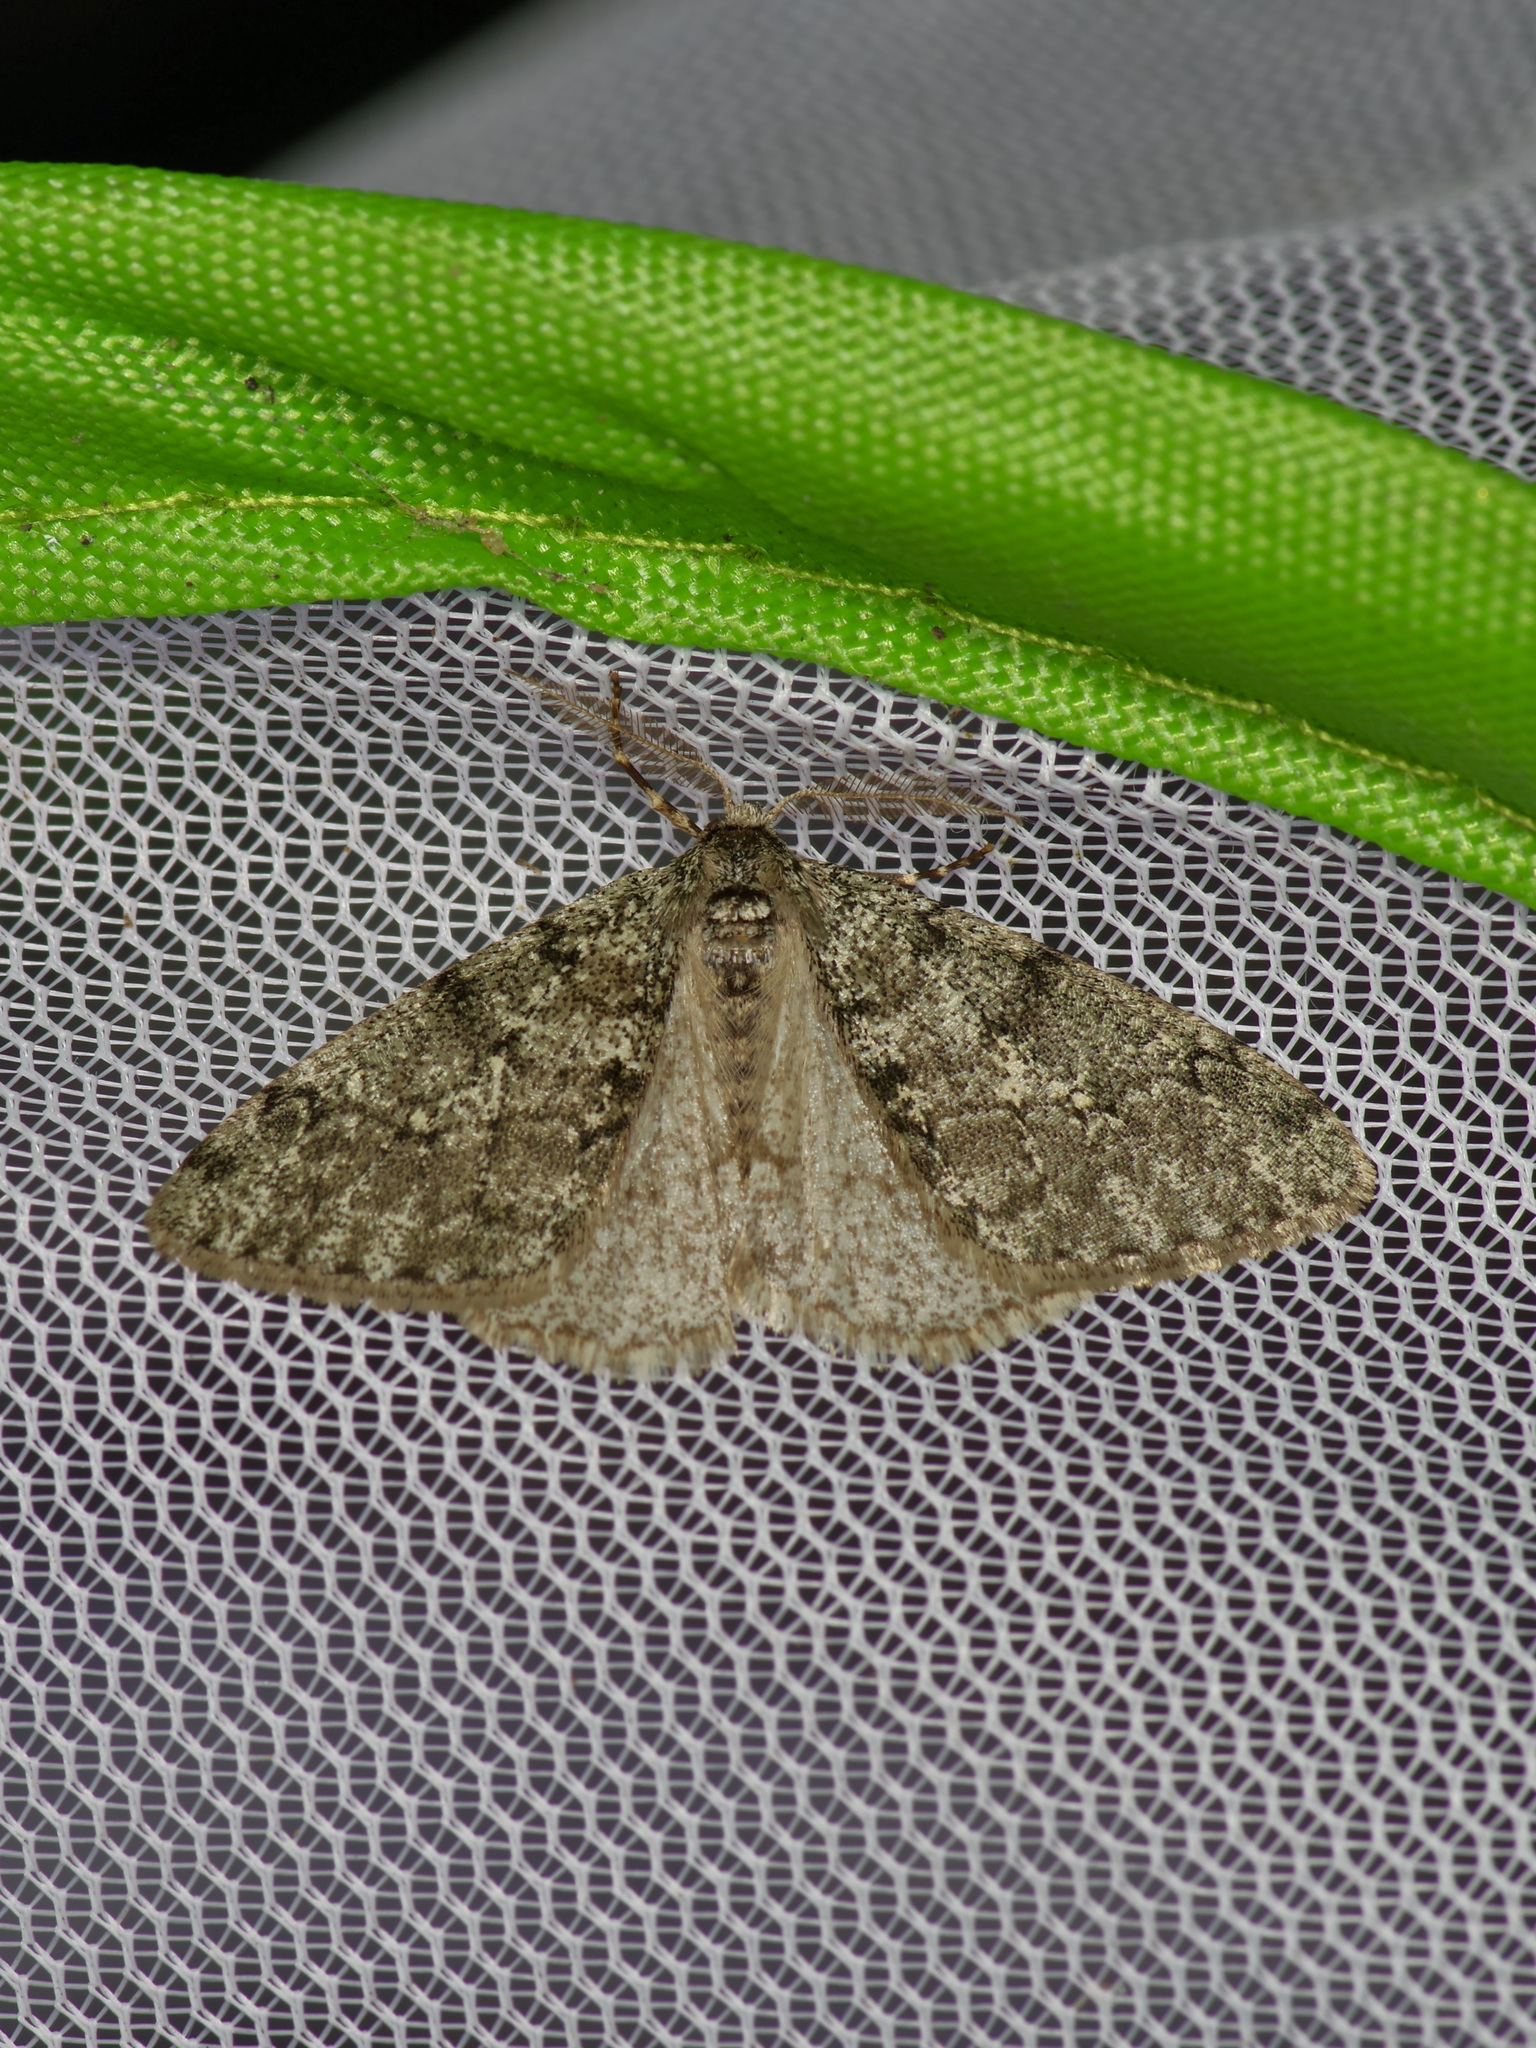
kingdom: Animalia
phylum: Arthropoda
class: Insecta
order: Lepidoptera
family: Geometridae
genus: Phigalia
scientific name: Phigalia strigataria
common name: Small phigalia
